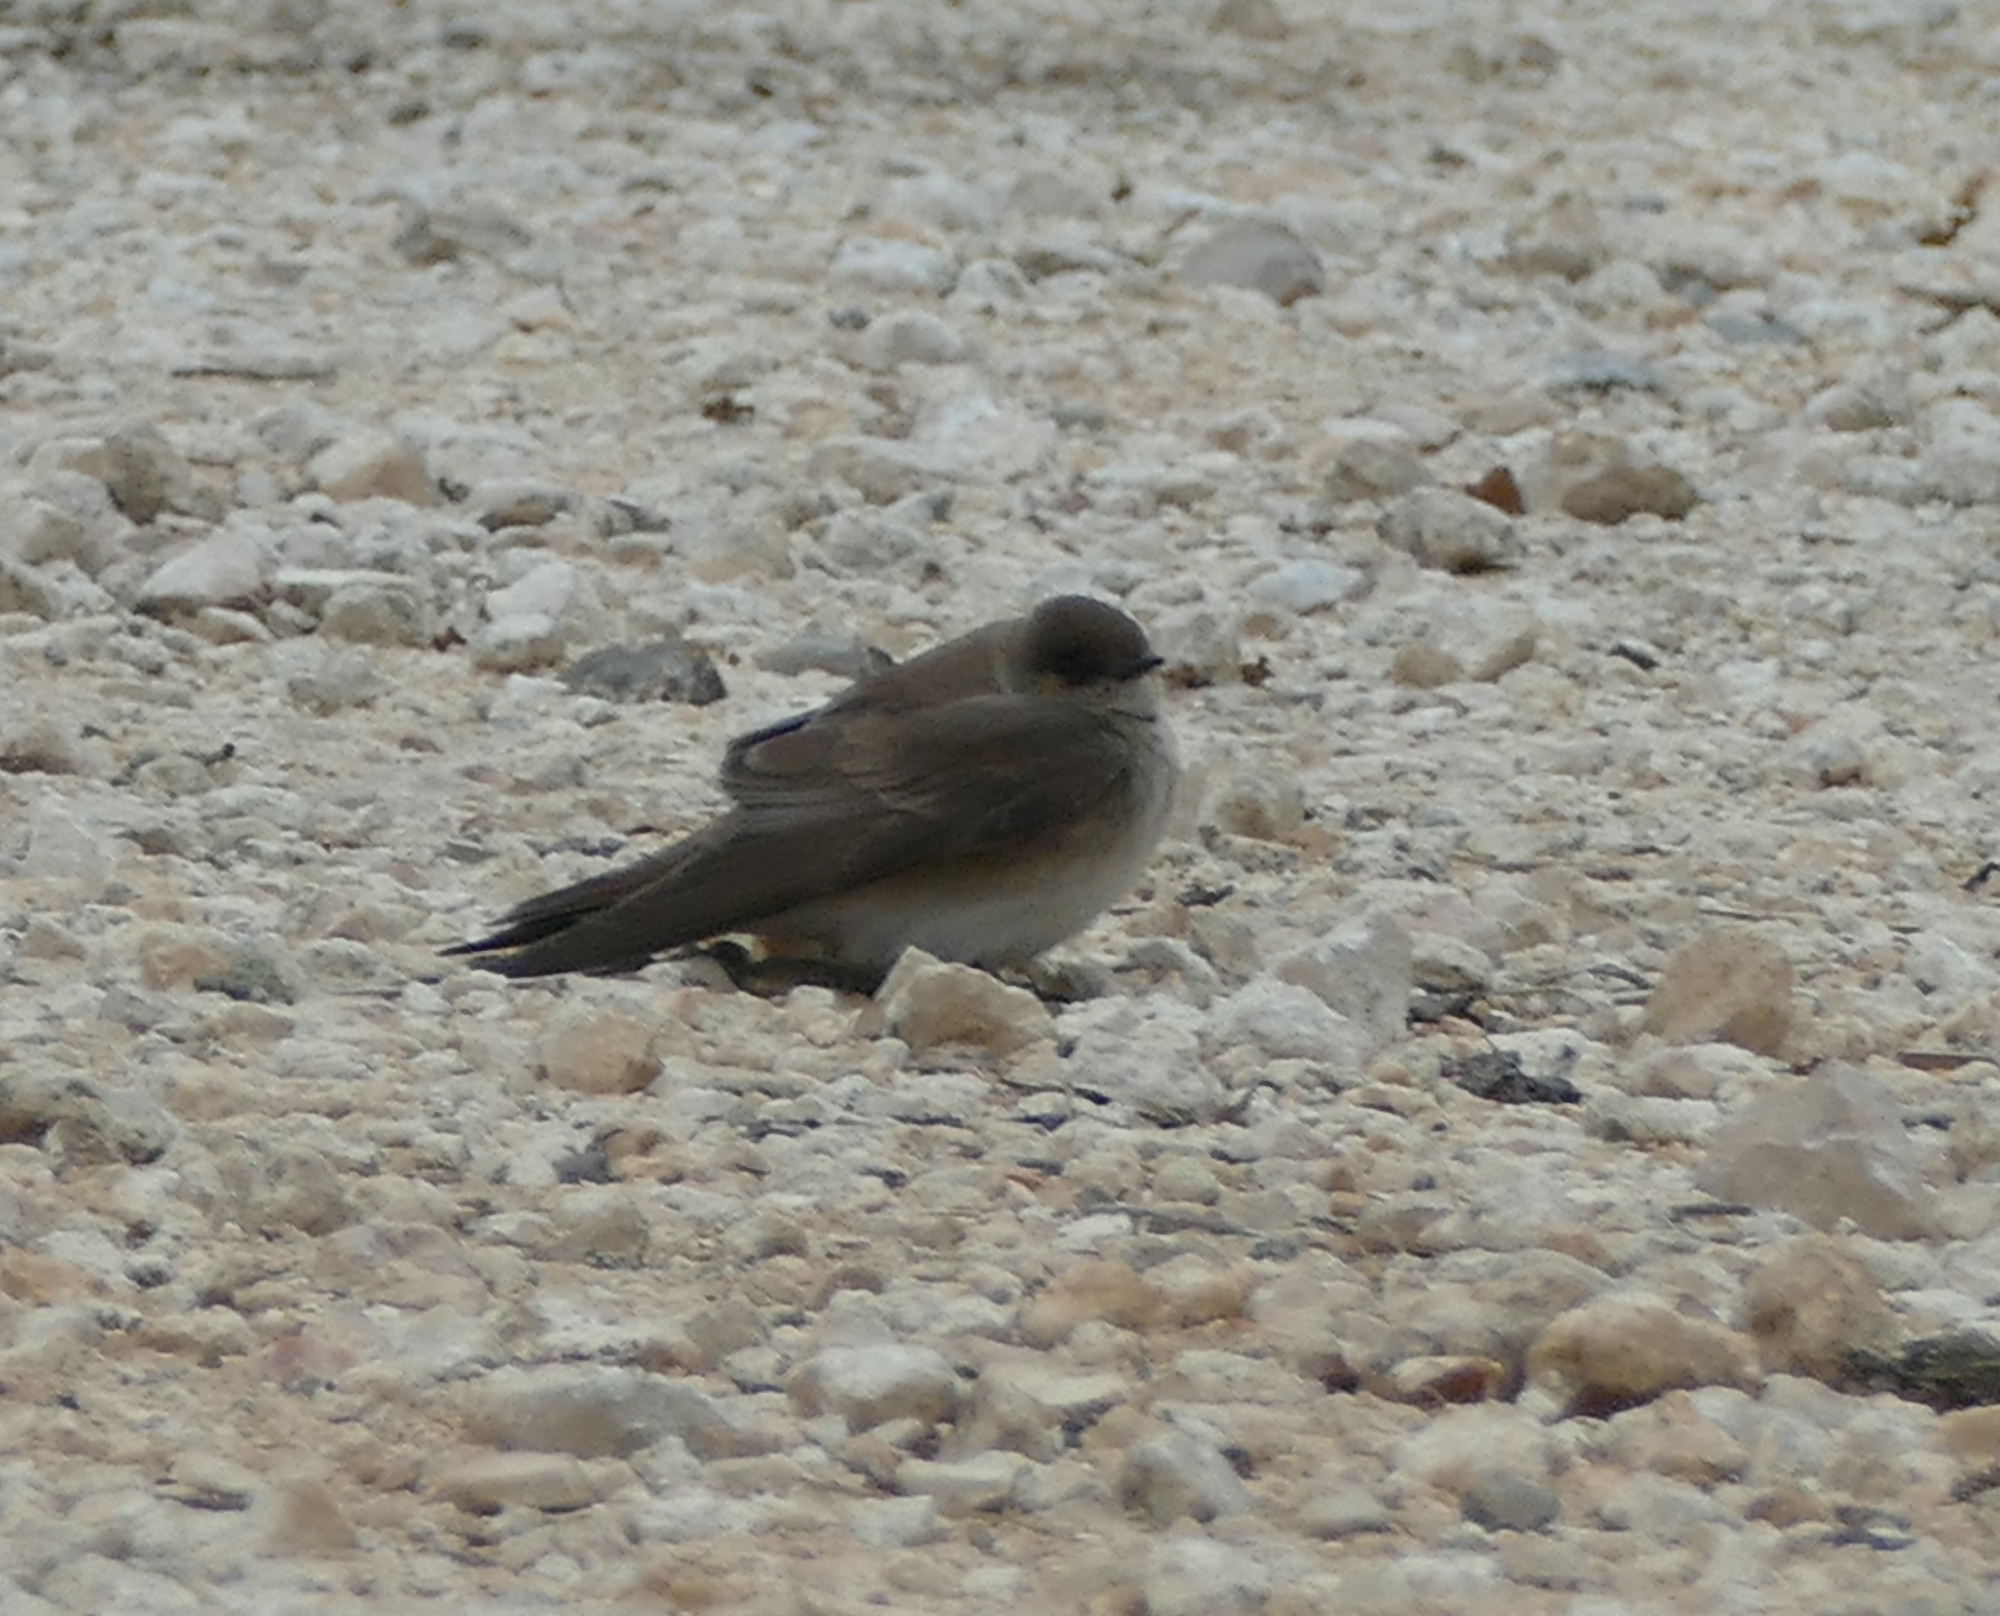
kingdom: Animalia
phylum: Chordata
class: Aves
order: Passeriformes
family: Hirundinidae
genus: Stelgidopteryx
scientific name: Stelgidopteryx serripennis
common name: Northern rough-winged swallow
